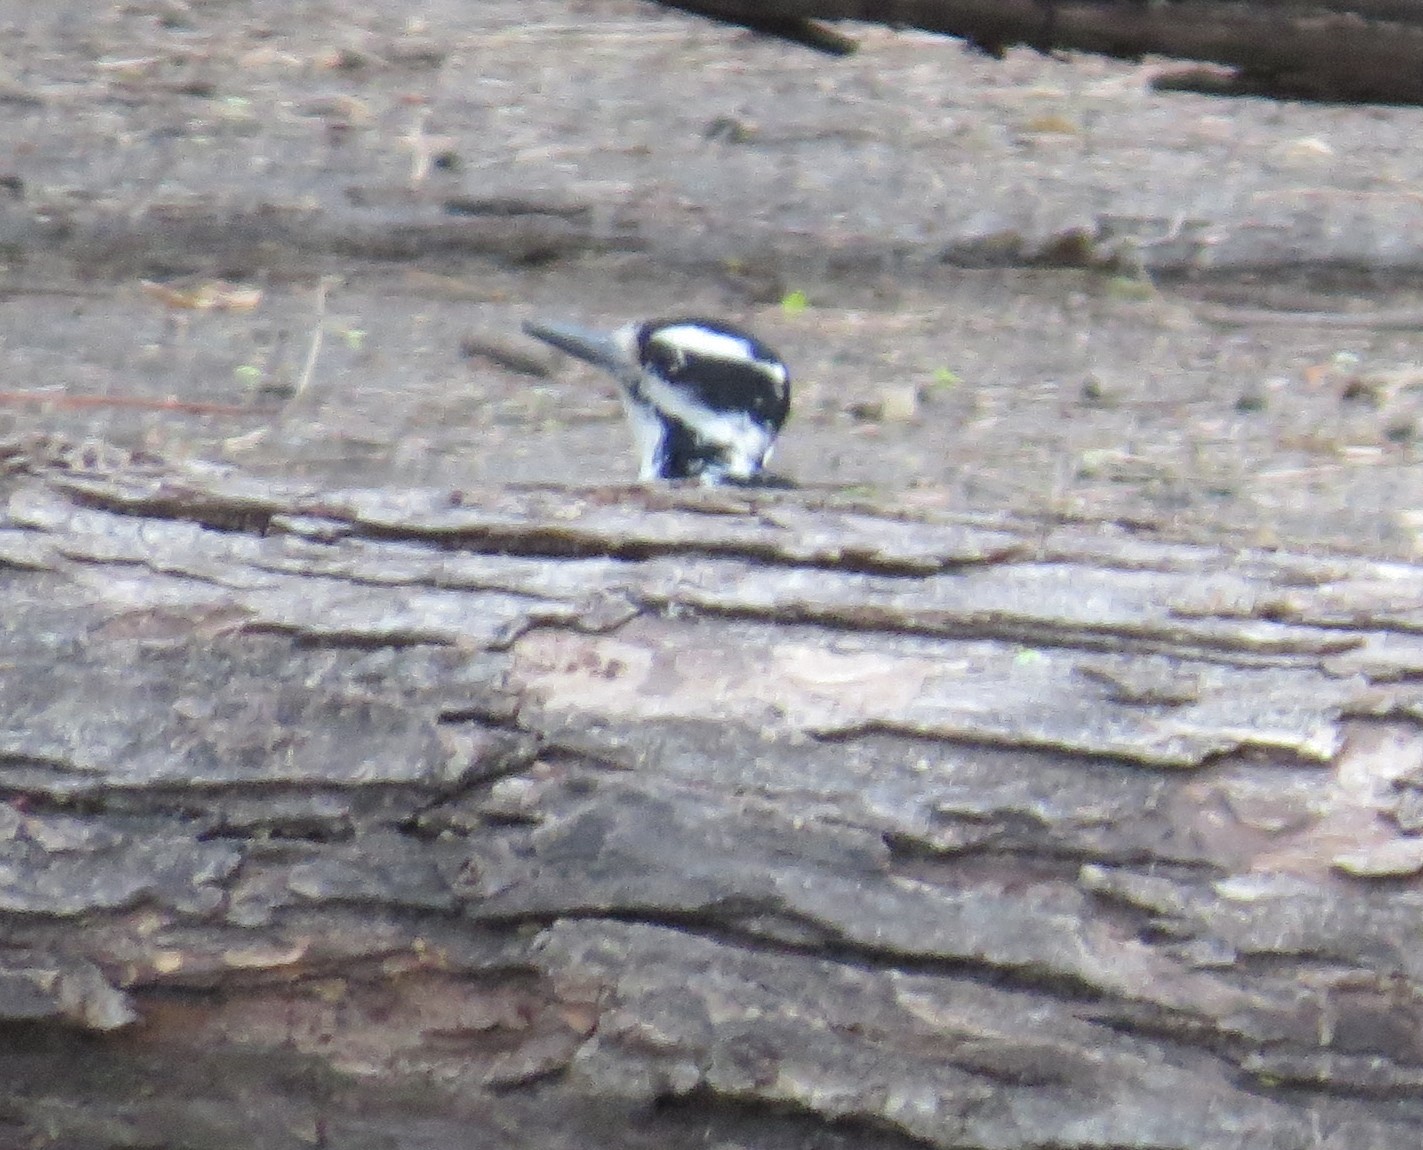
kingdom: Animalia
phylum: Chordata
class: Aves
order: Piciformes
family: Picidae
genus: Leuconotopicus
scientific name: Leuconotopicus villosus
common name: Hairy woodpecker
